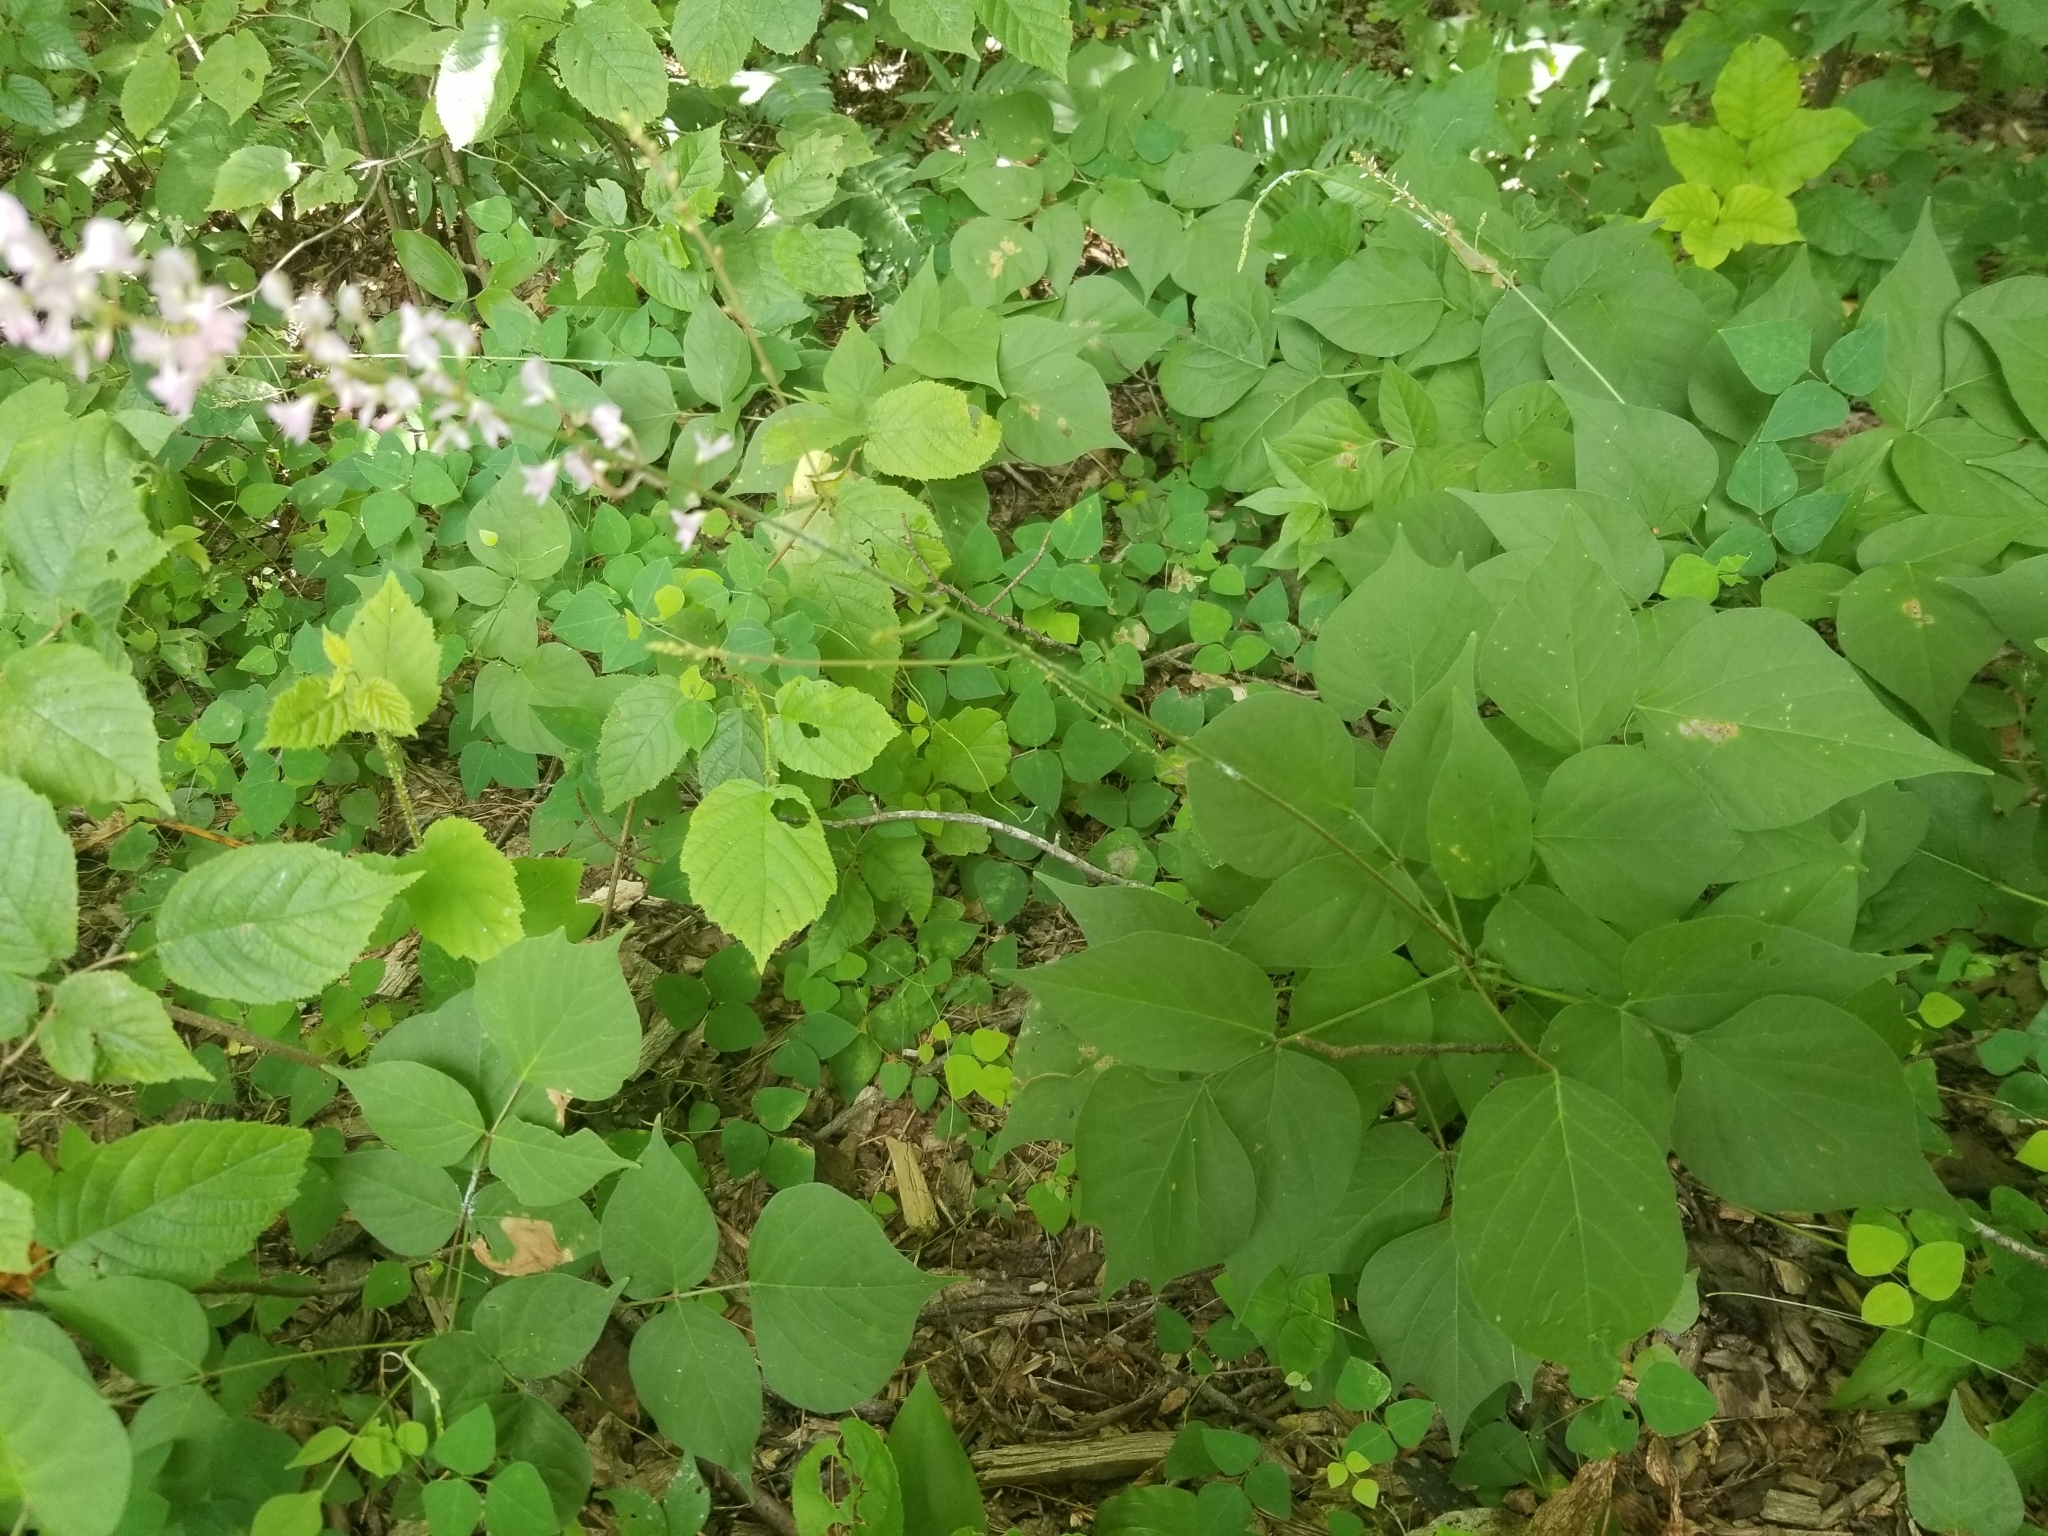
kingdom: Plantae
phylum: Tracheophyta
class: Magnoliopsida
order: Fabales
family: Fabaceae
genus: Hylodesmum
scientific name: Hylodesmum glutinosum
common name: Clustered-leaved tick-trefoil
